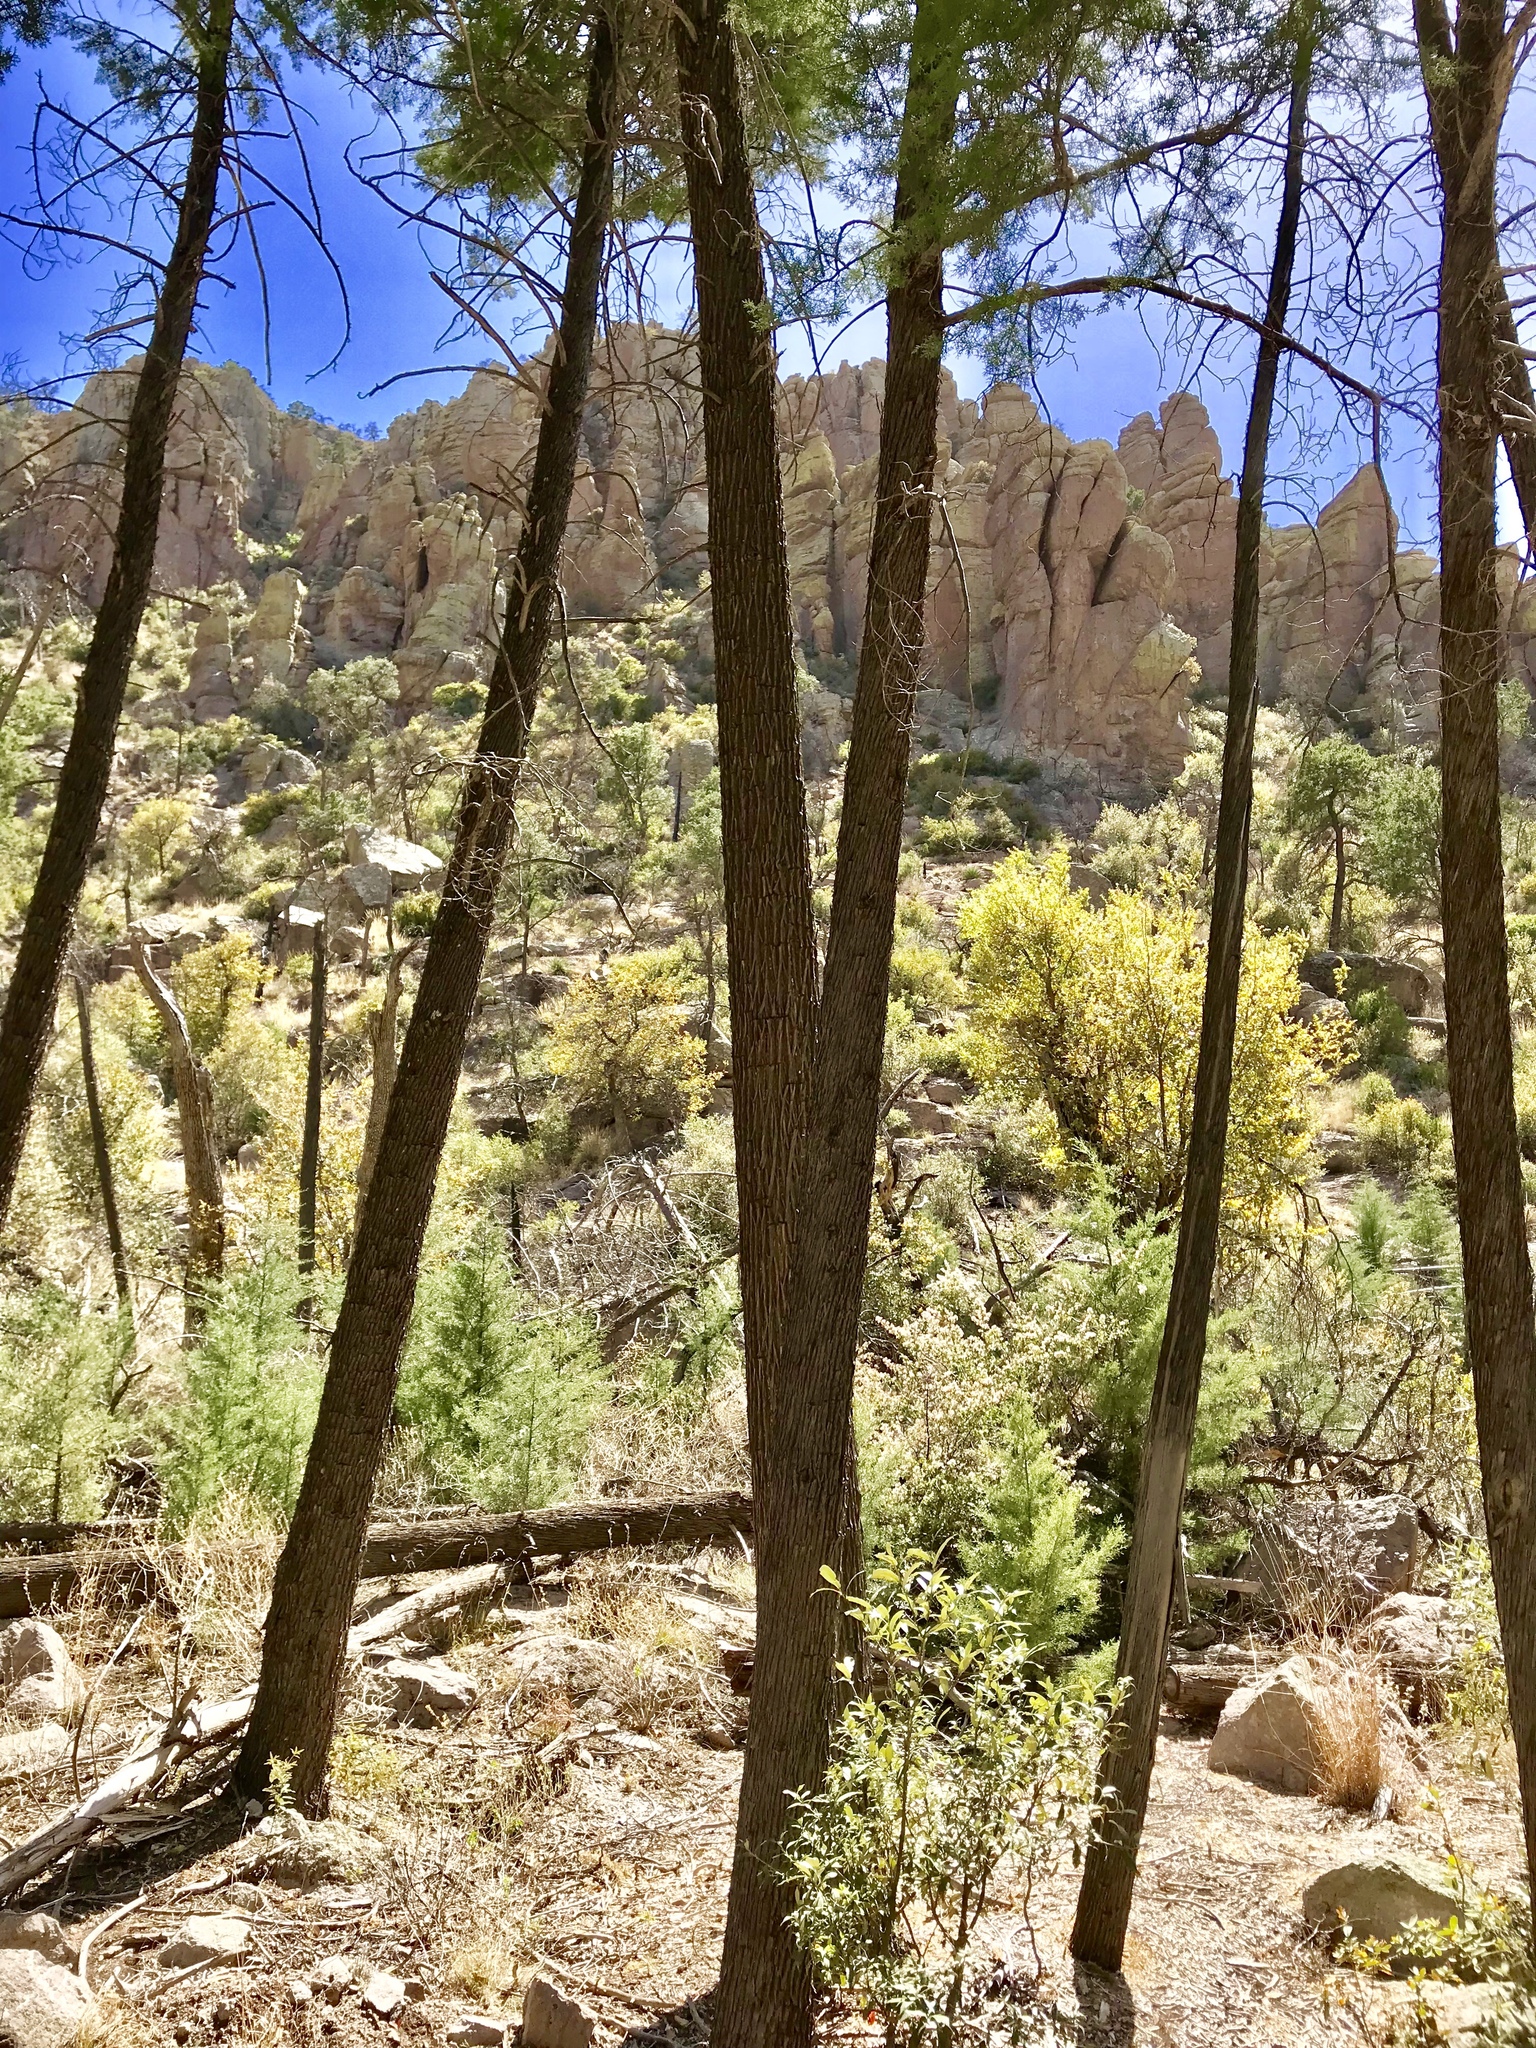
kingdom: Plantae
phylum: Tracheophyta
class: Pinopsida
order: Pinales
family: Cupressaceae
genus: Cupressus
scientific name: Cupressus arizonica
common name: Arizona cypress
